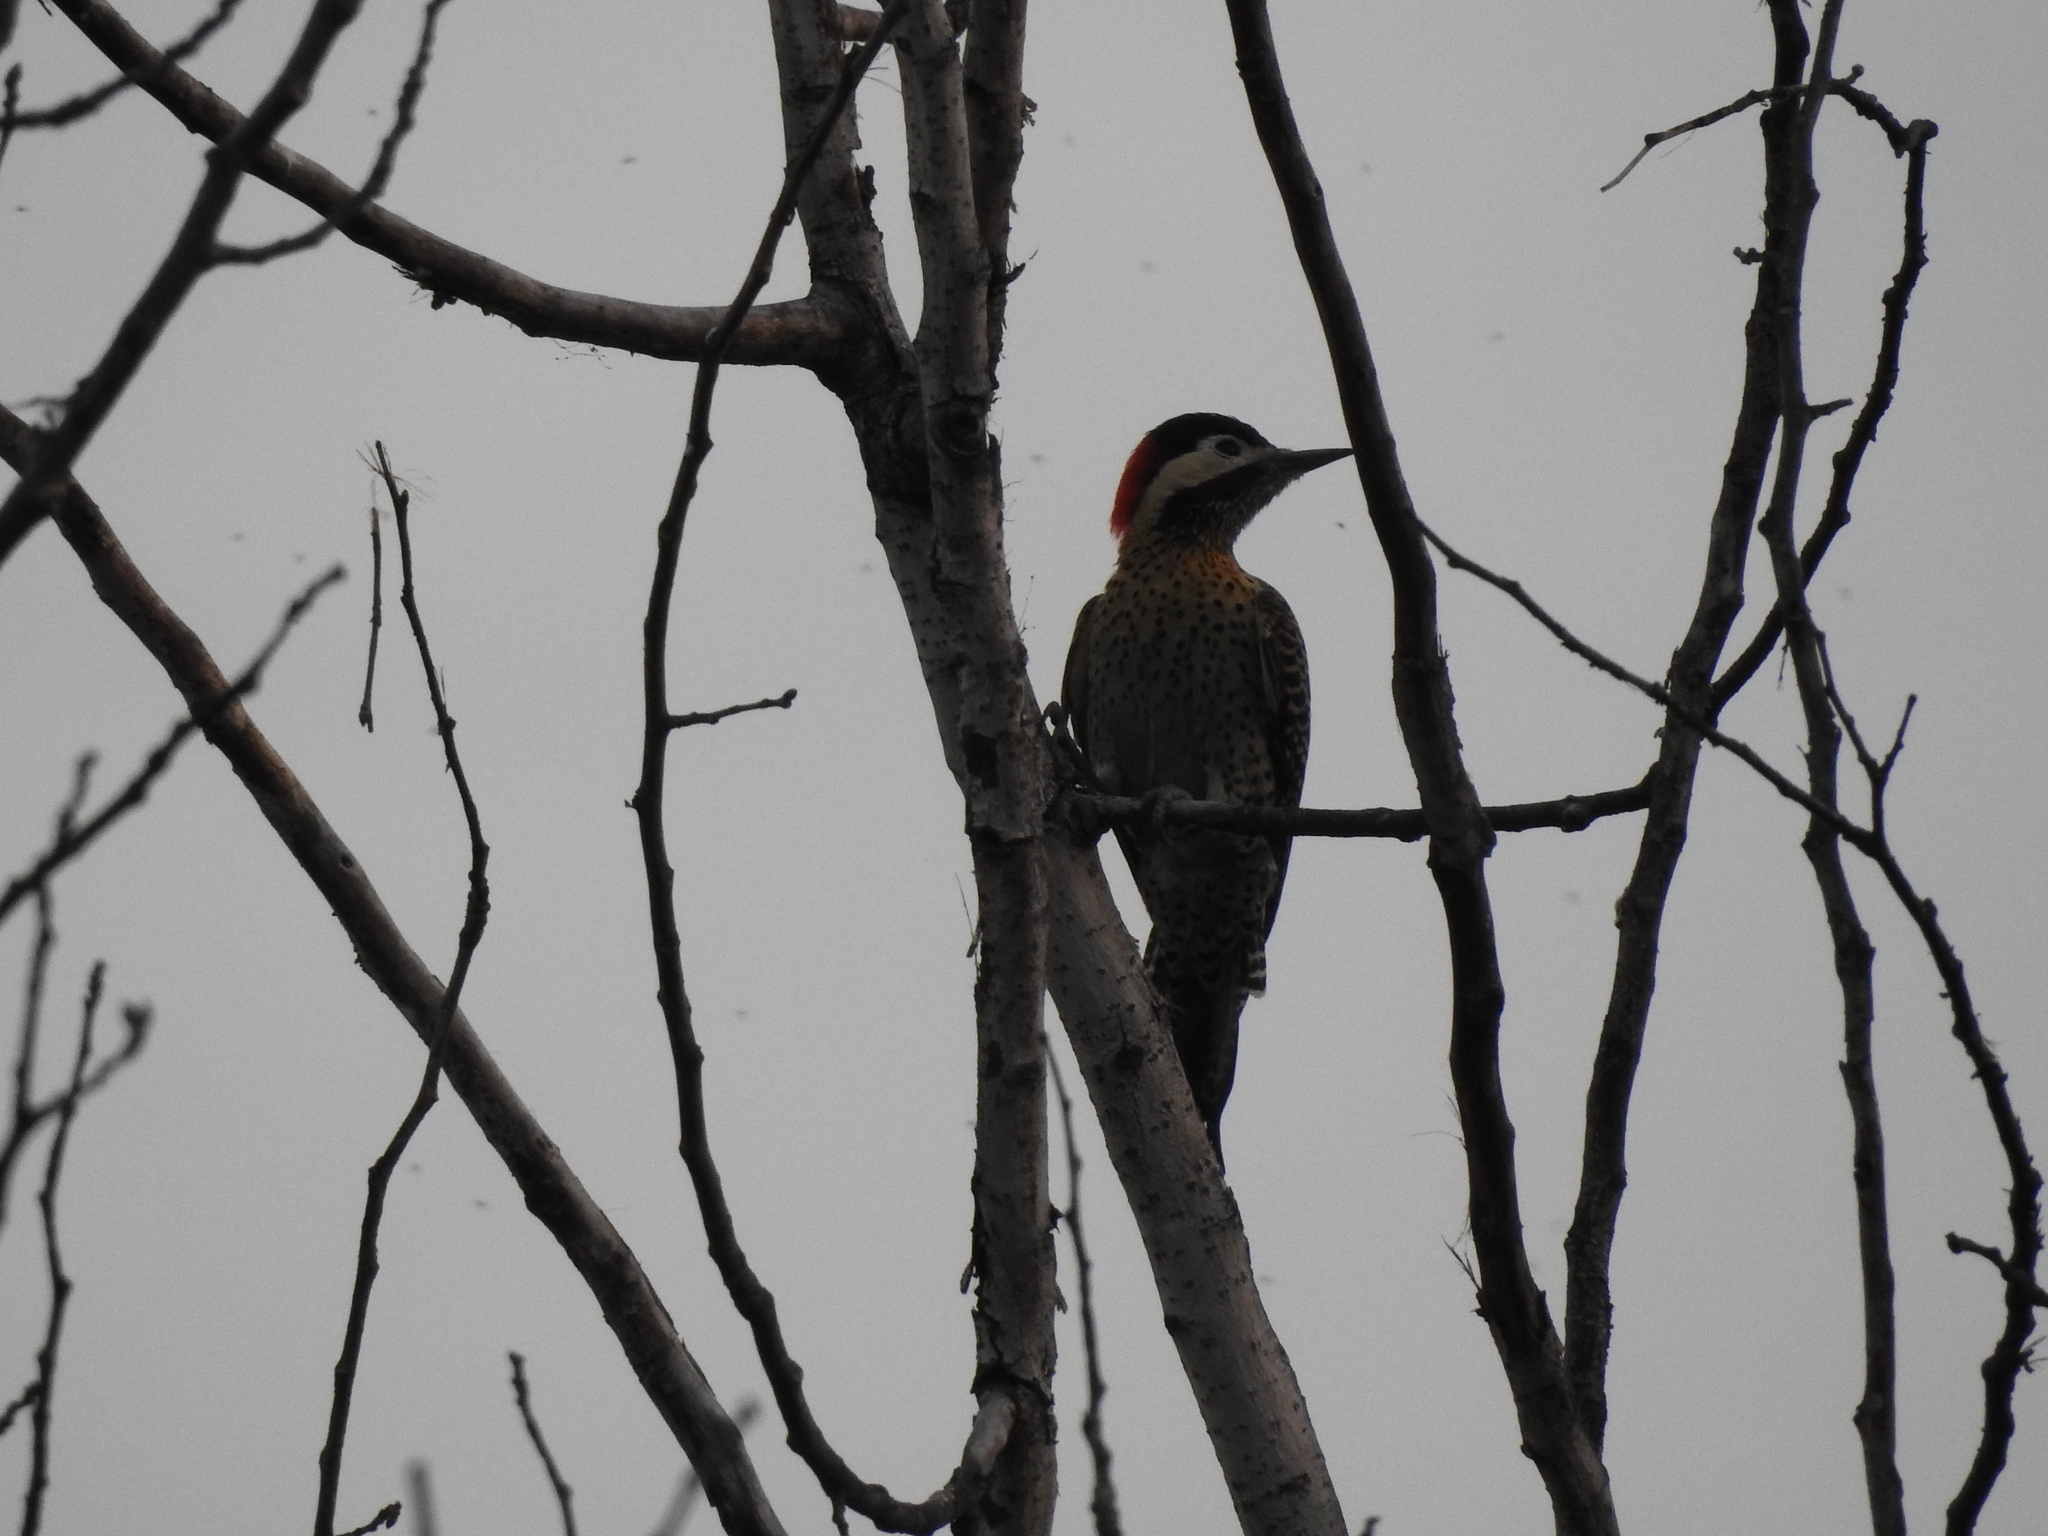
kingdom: Animalia
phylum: Chordata
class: Aves
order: Piciformes
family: Picidae
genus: Colaptes
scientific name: Colaptes melanochloros
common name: Green-barred woodpecker
